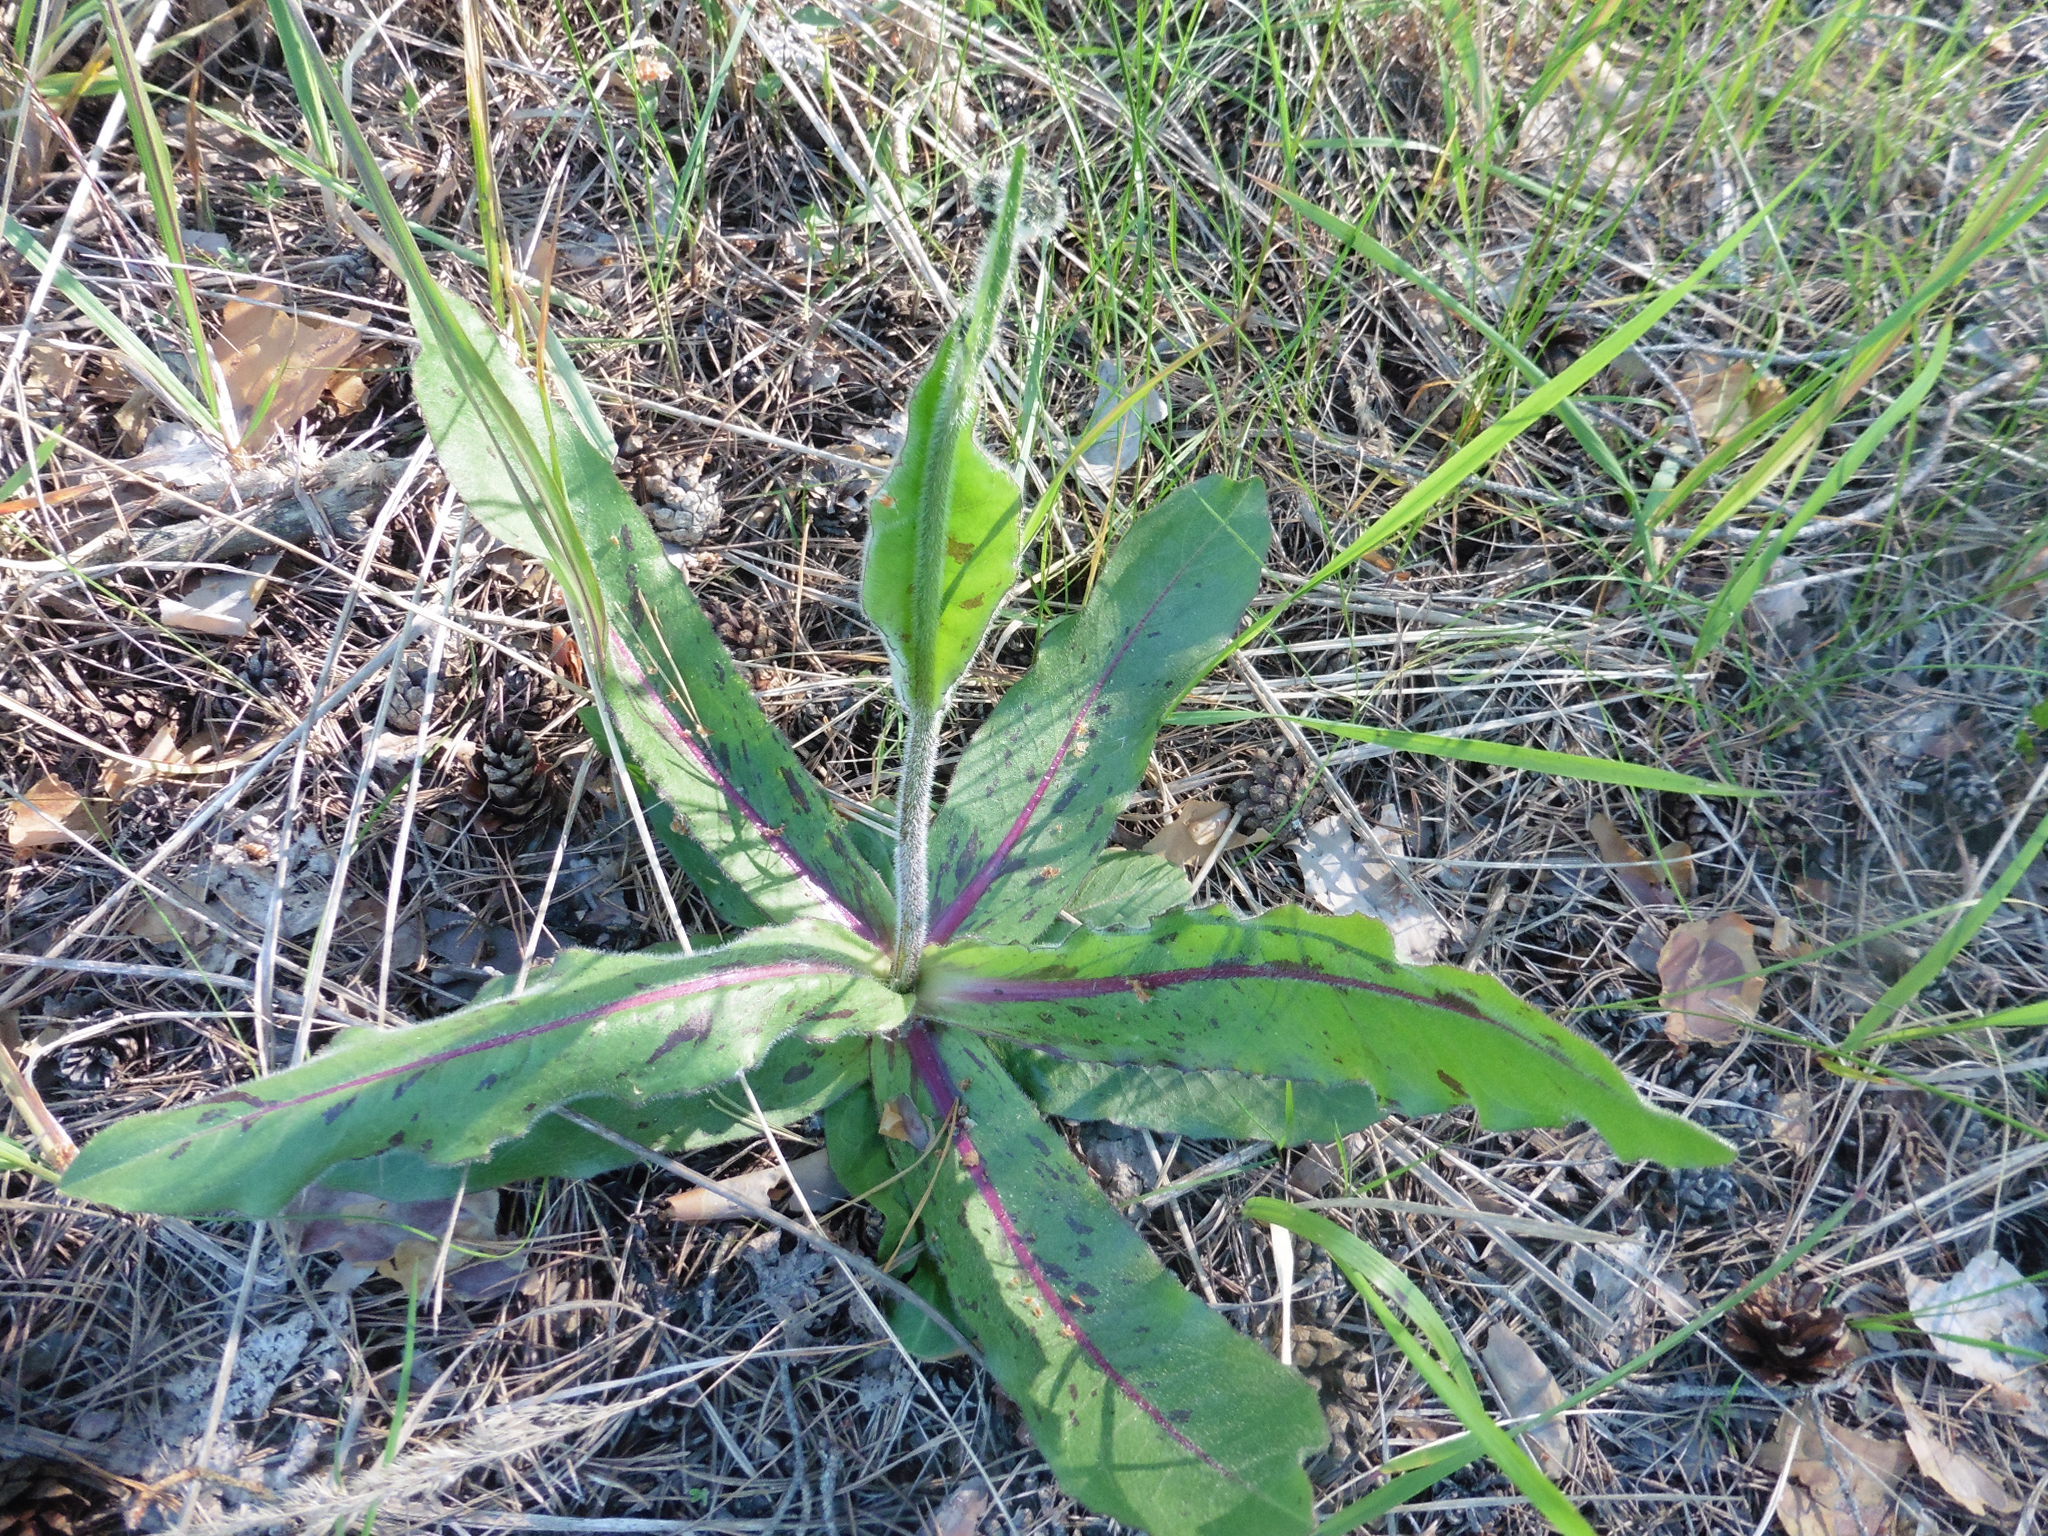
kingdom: Plantae
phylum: Tracheophyta
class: Magnoliopsida
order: Asterales
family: Asteraceae
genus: Trommsdorffia
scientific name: Trommsdorffia maculata
